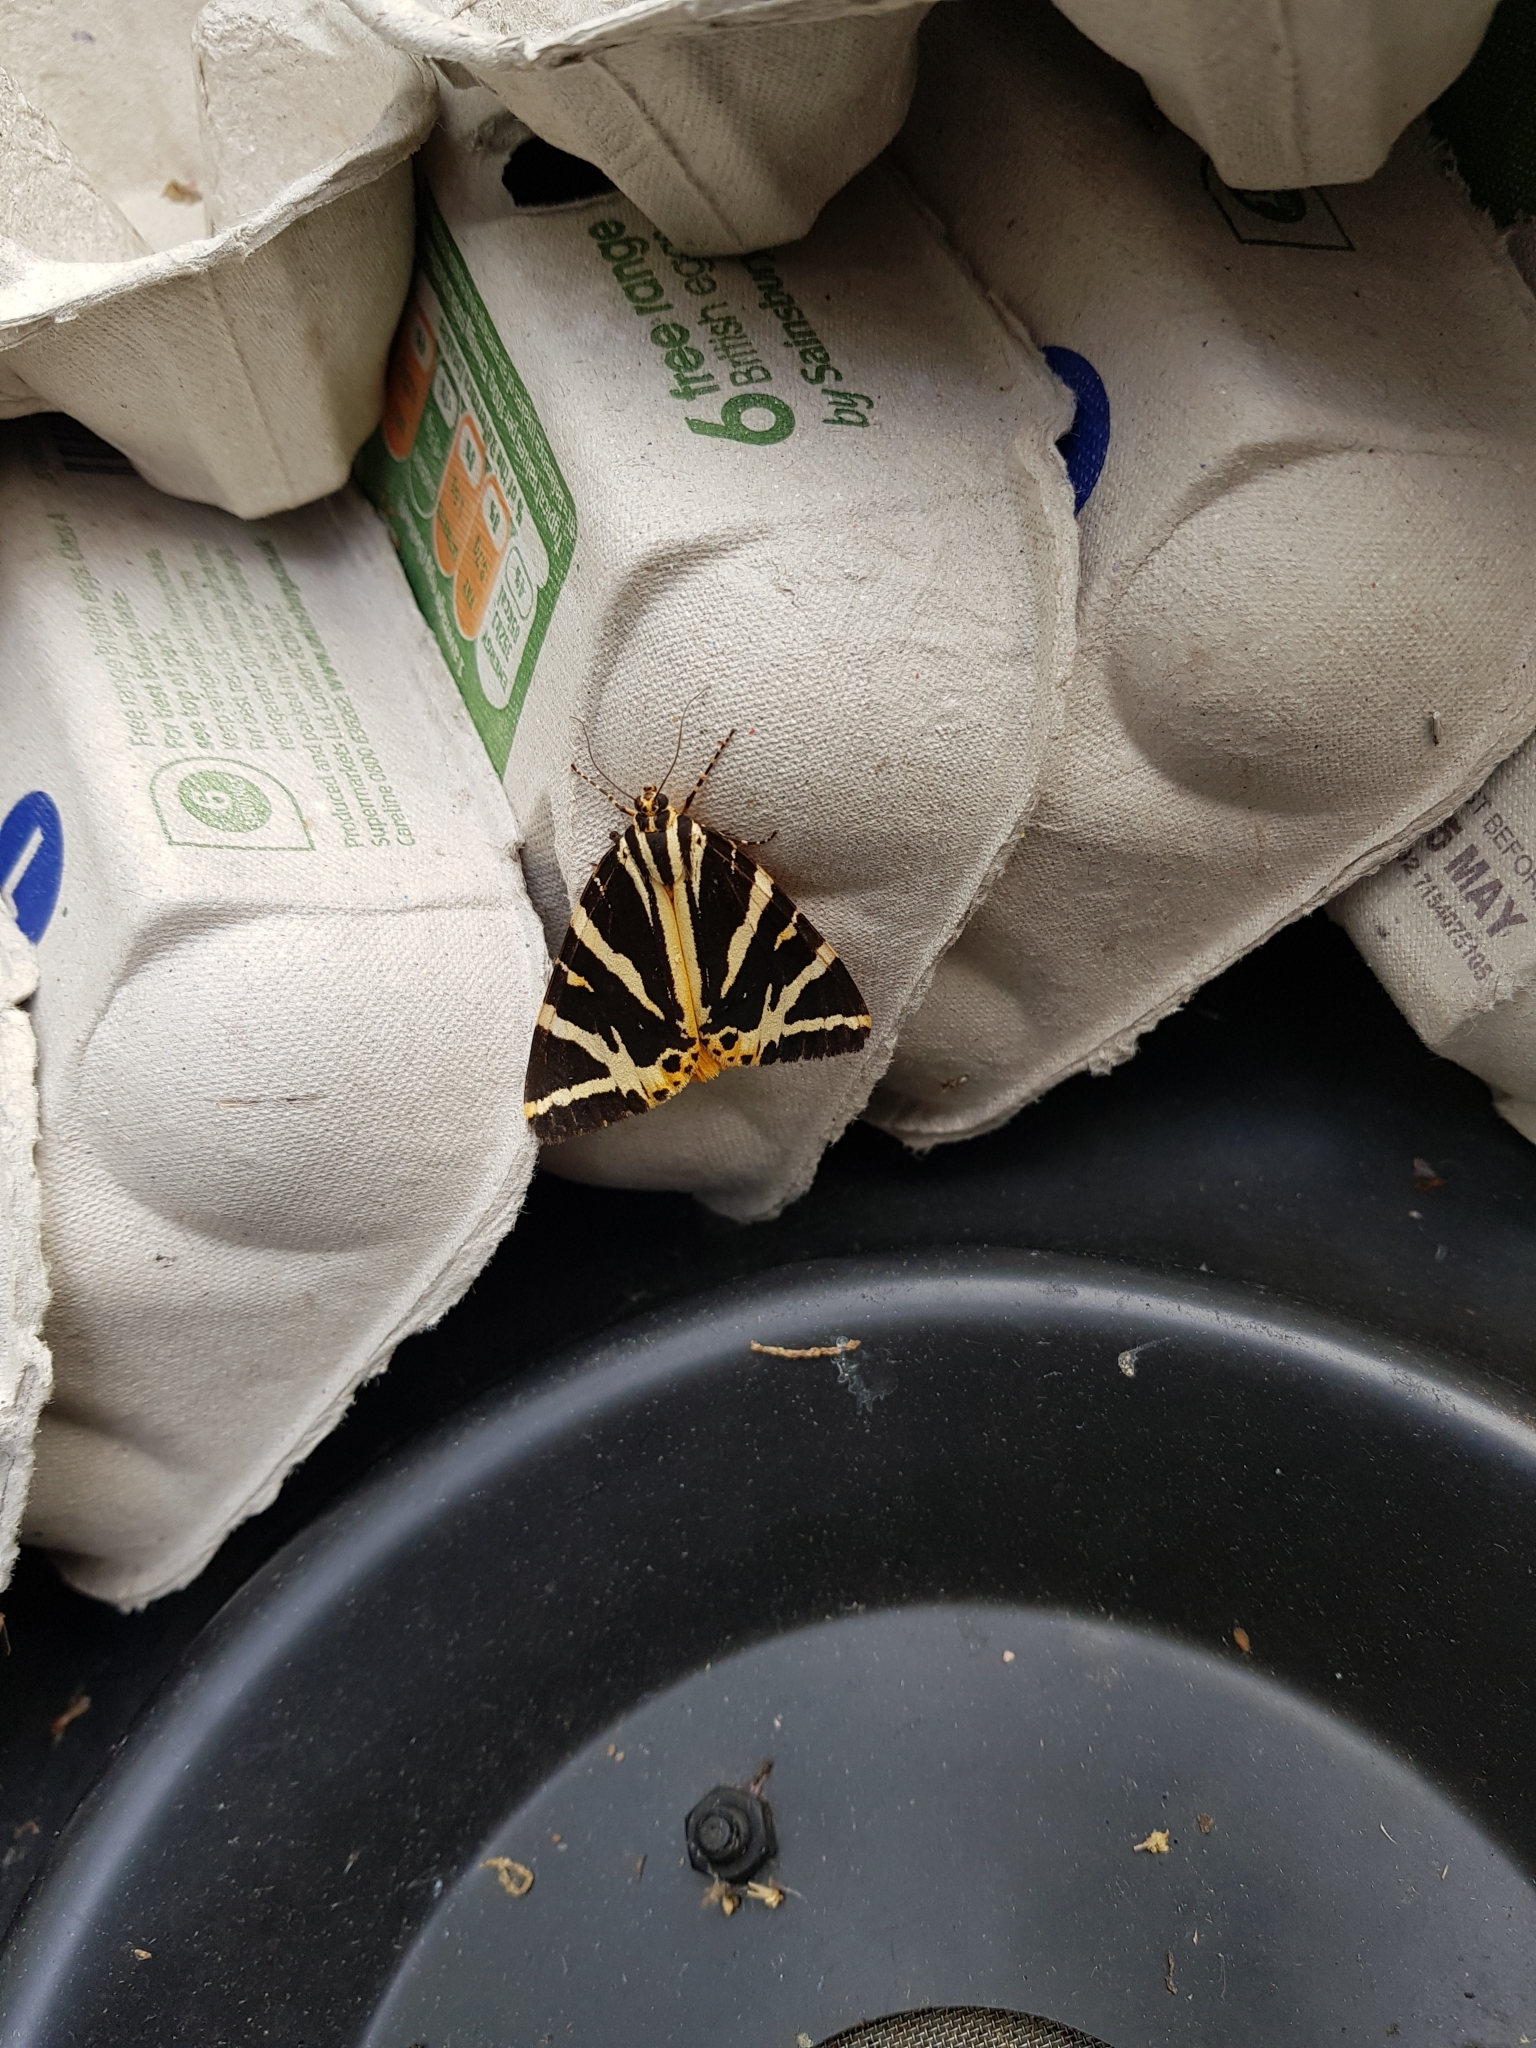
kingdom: Animalia
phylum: Arthropoda
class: Insecta
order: Lepidoptera
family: Erebidae
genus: Euplagia
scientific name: Euplagia quadripunctaria
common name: Jersey tiger
